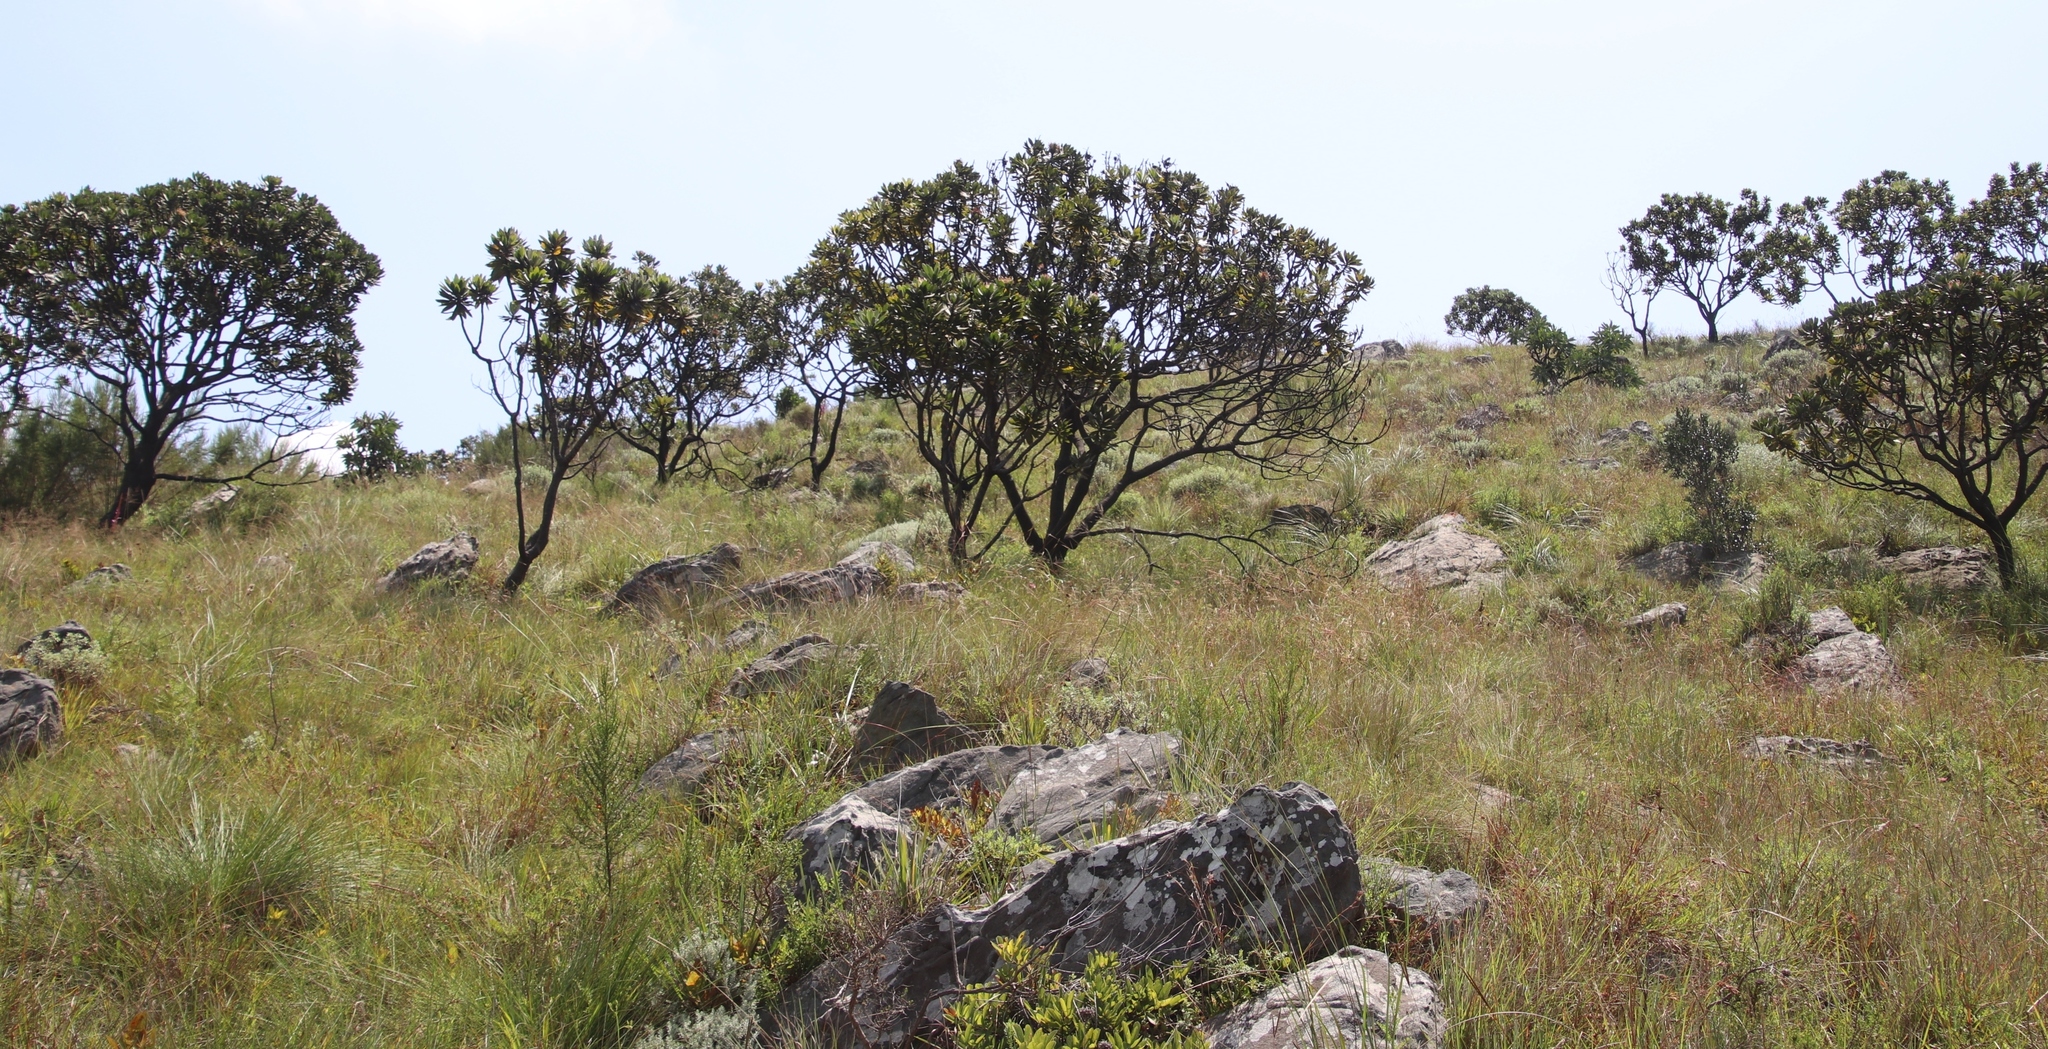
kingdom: Plantae
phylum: Tracheophyta
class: Magnoliopsida
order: Proteales
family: Proteaceae
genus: Protea
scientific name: Protea roupelliae
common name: Silver sugarbush
